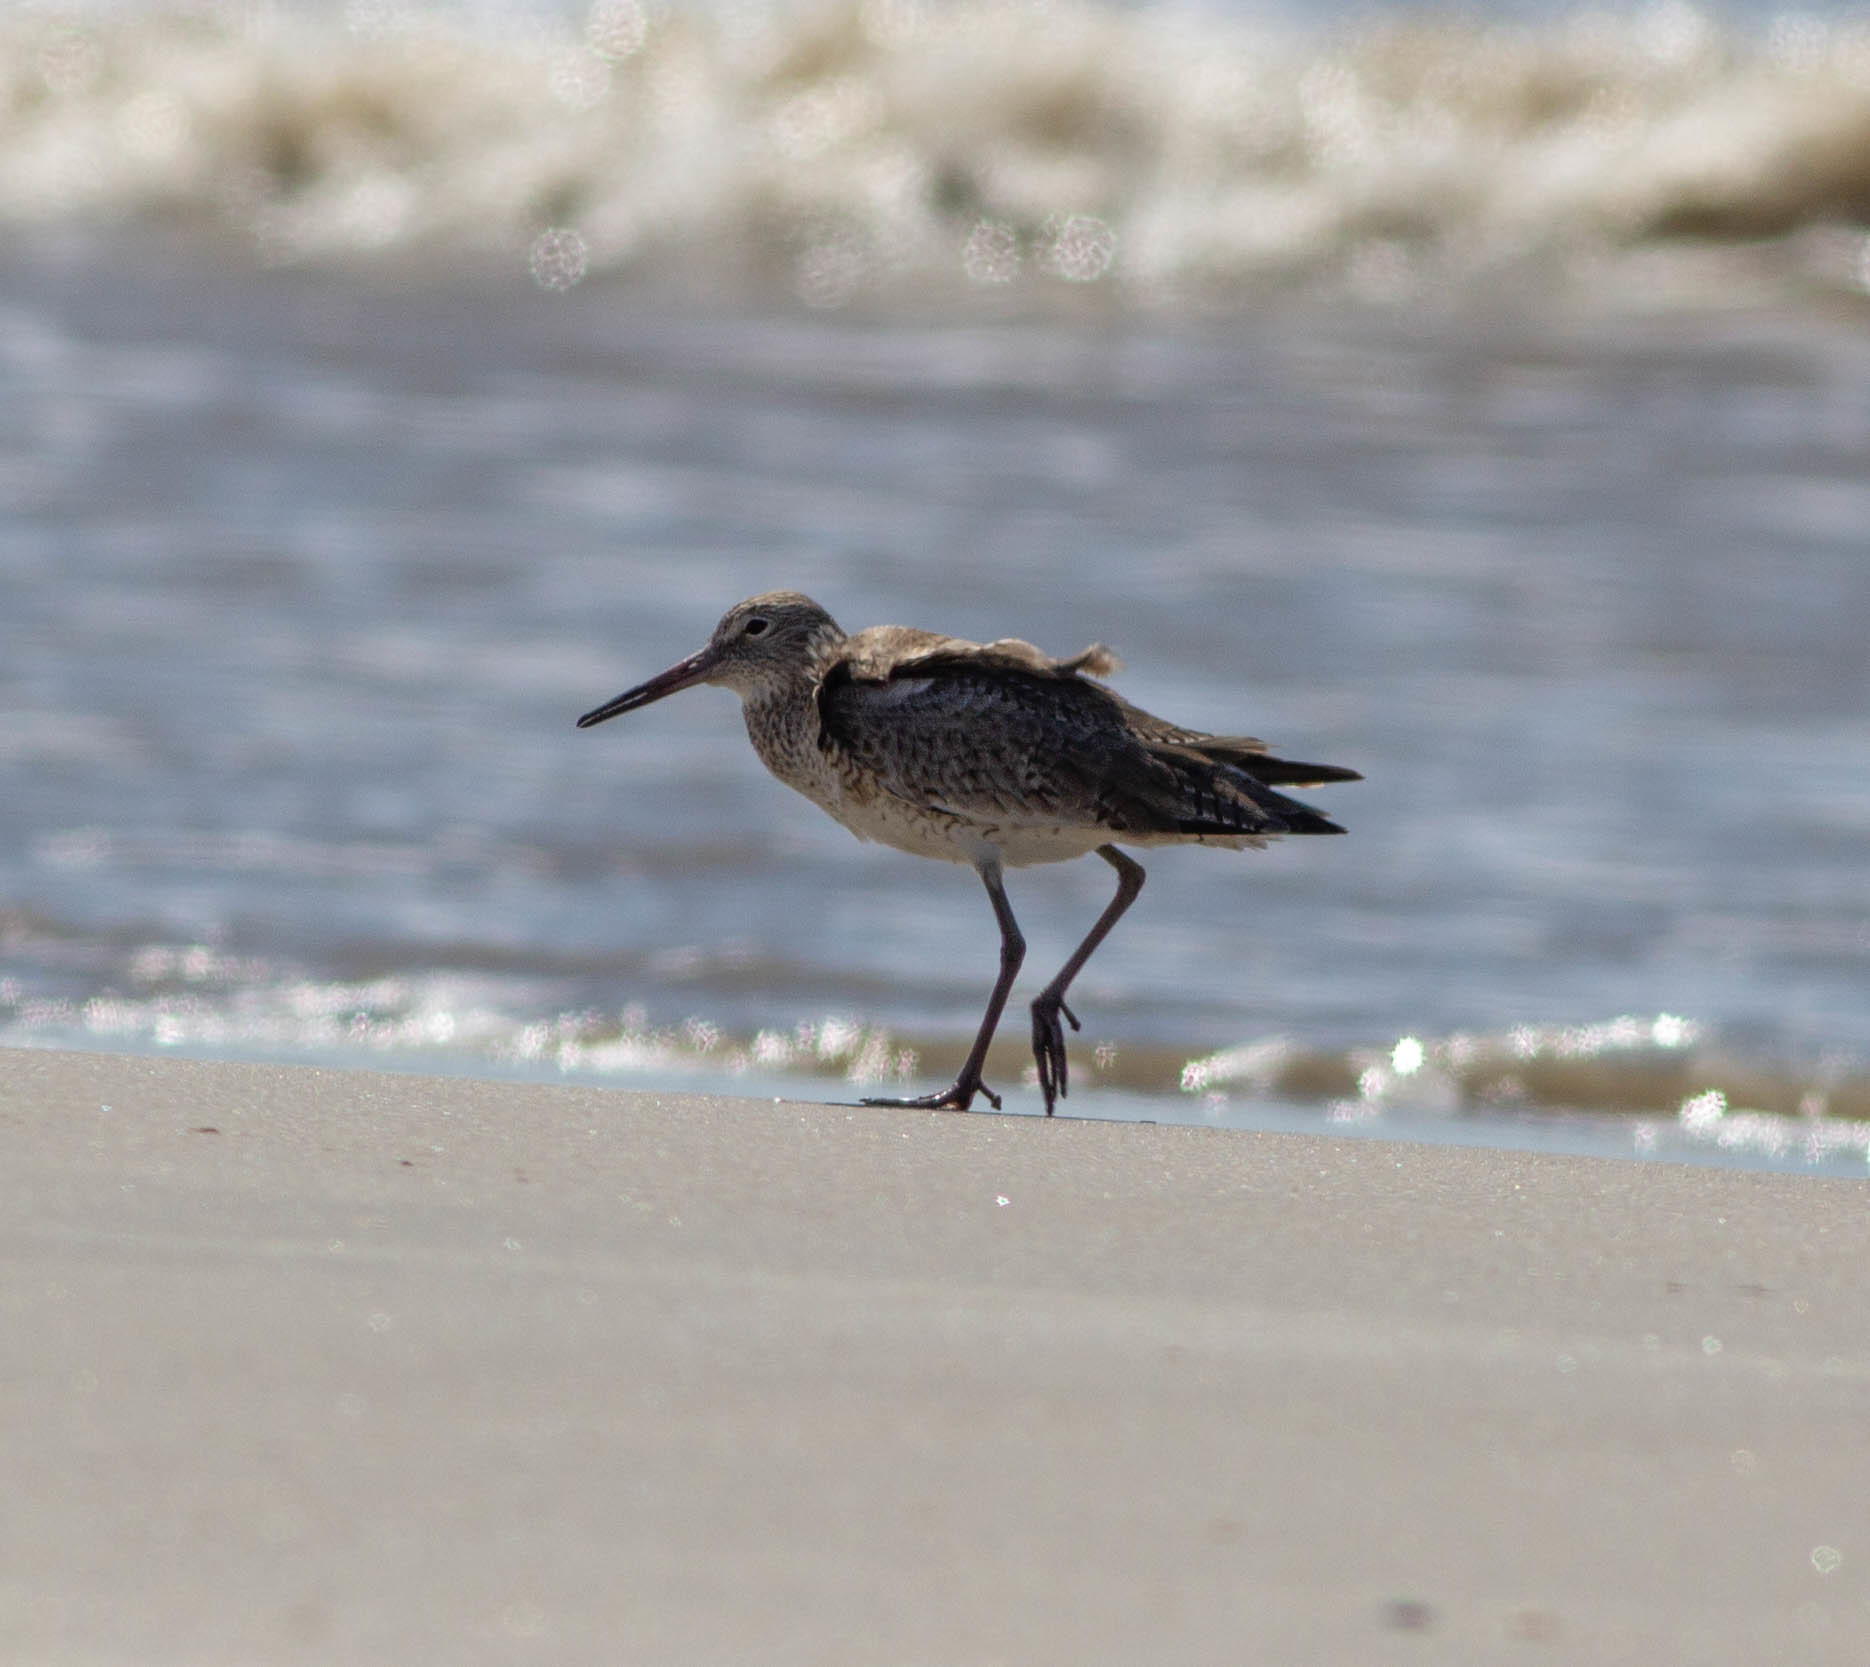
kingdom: Animalia
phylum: Chordata
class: Aves
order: Charadriiformes
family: Scolopacidae
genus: Tringa
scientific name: Tringa semipalmata
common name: Willet
